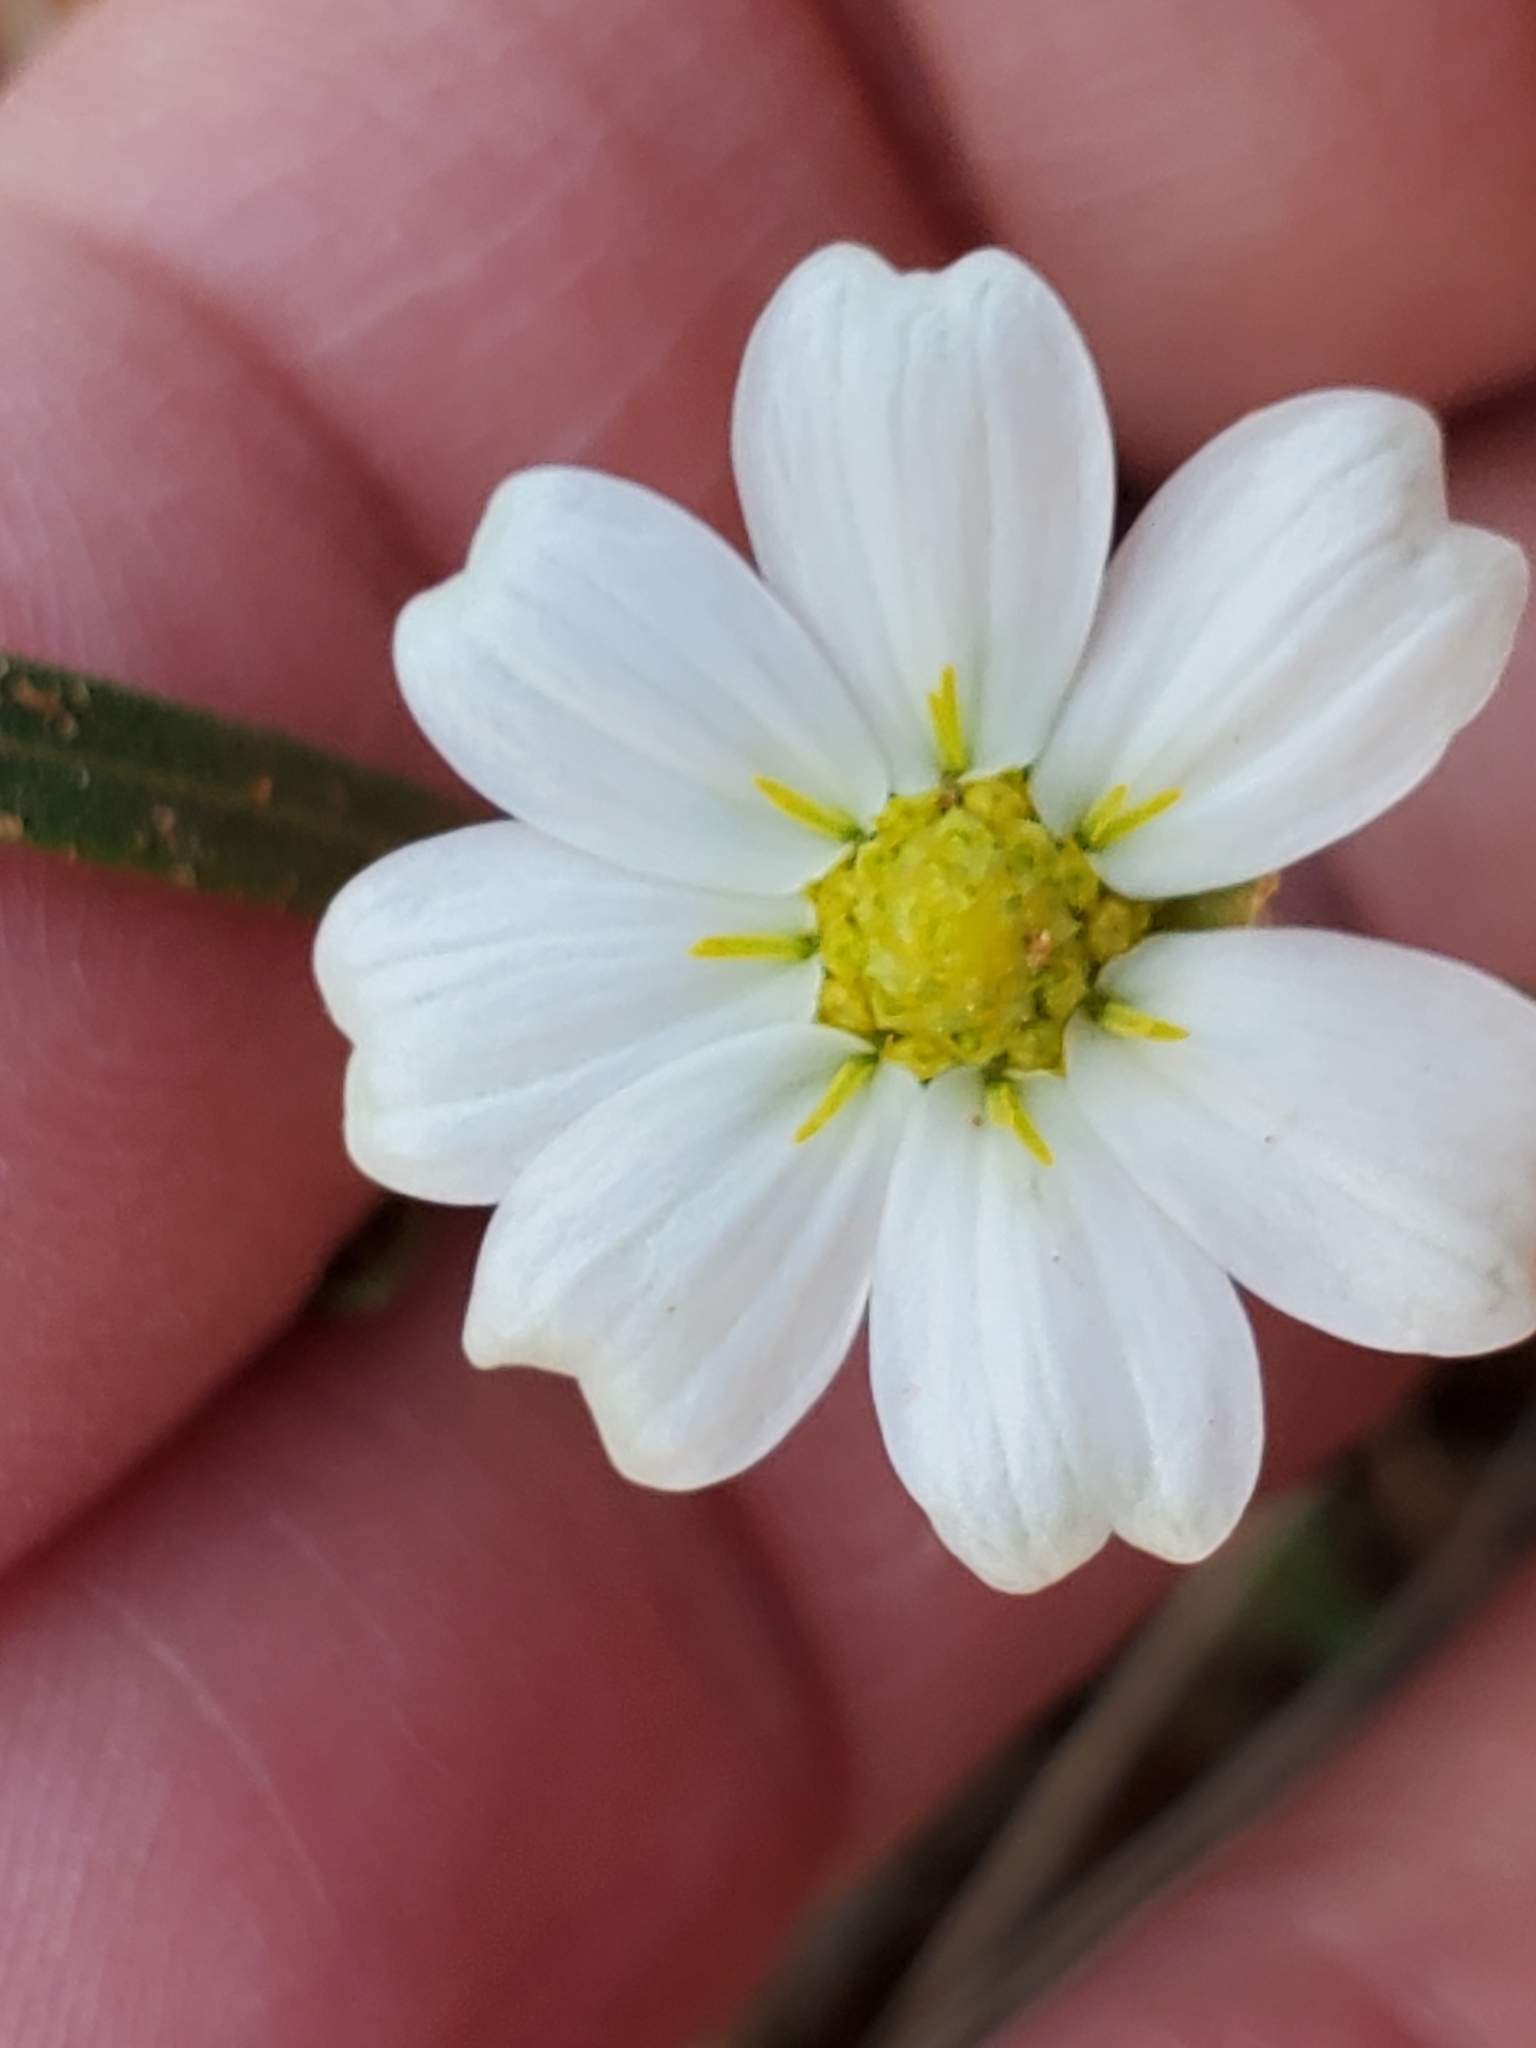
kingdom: Plantae
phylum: Tracheophyta
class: Magnoliopsida
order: Asterales
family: Asteraceae
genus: Melampodium
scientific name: Melampodium leucanthum
